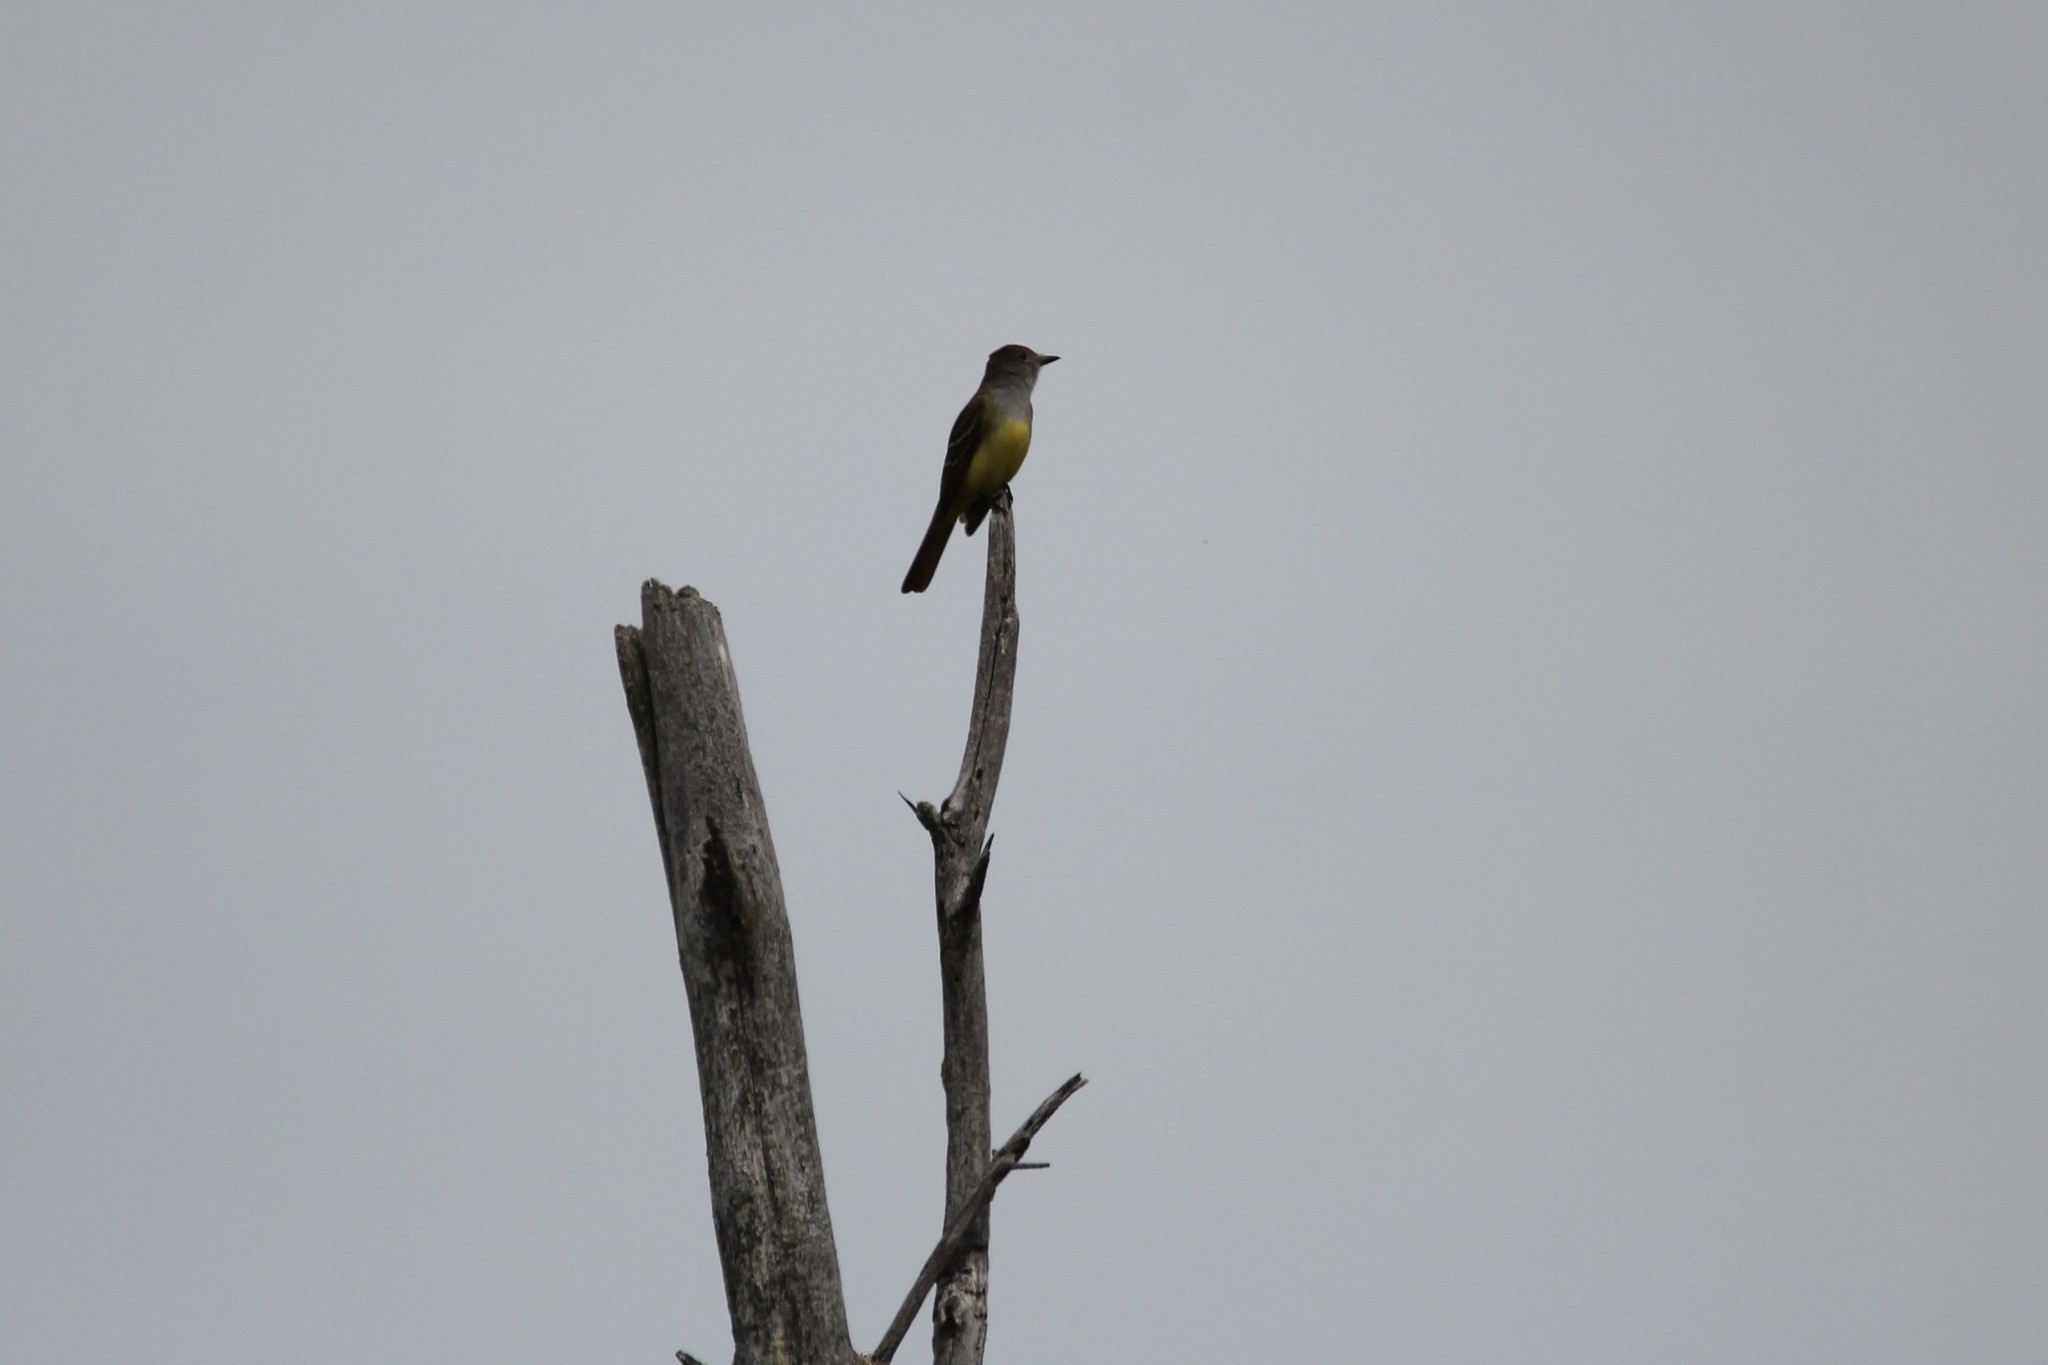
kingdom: Animalia
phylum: Chordata
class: Aves
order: Passeriformes
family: Tyrannidae
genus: Myiarchus
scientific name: Myiarchus crinitus
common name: Great crested flycatcher
